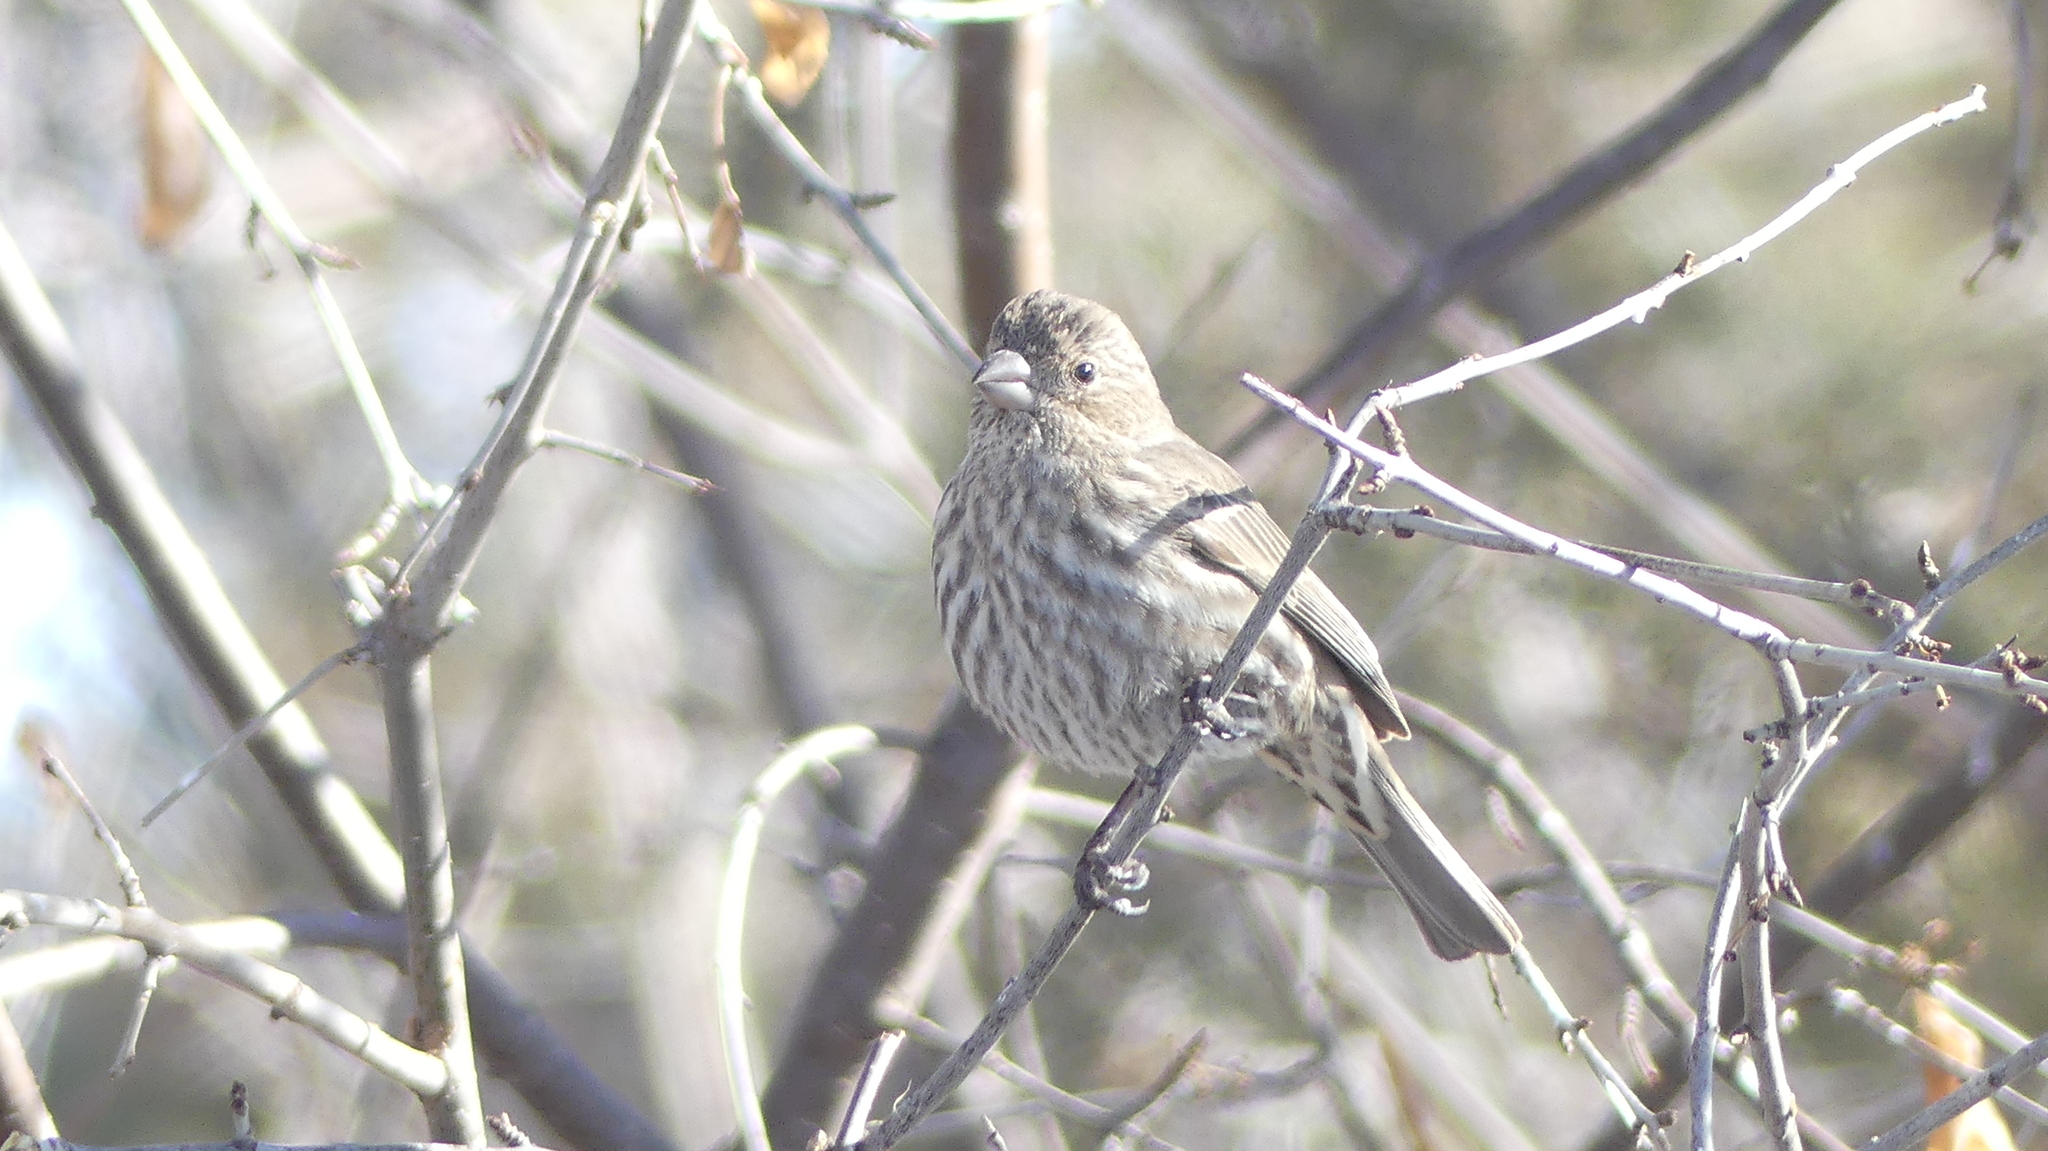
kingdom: Animalia
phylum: Chordata
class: Aves
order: Passeriformes
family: Fringillidae
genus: Haemorhous
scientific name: Haemorhous mexicanus
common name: House finch
